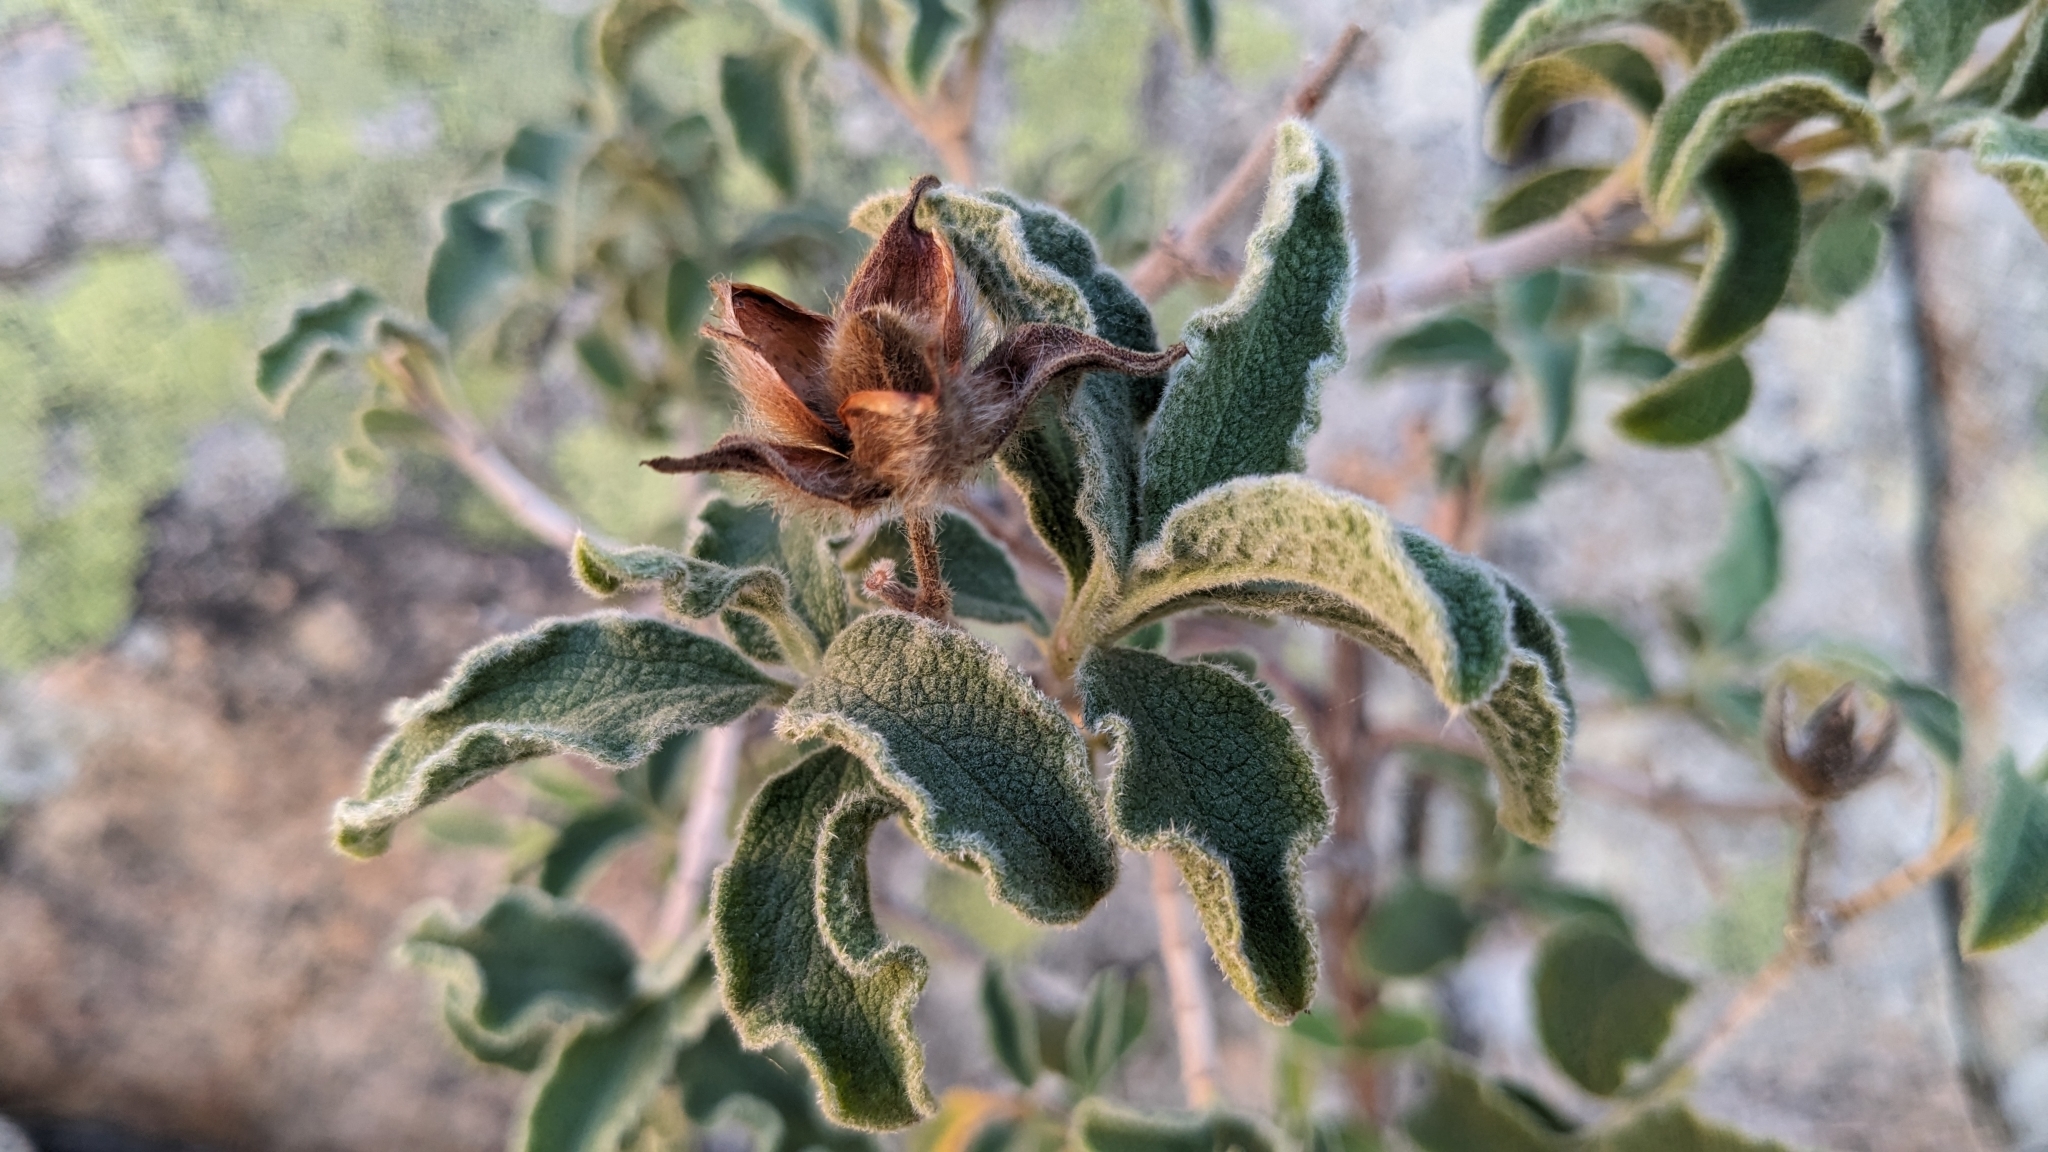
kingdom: Plantae
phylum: Tracheophyta
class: Magnoliopsida
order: Malvales
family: Cistaceae
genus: Cistus
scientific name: Cistus creticus
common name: Cretan rockrose
